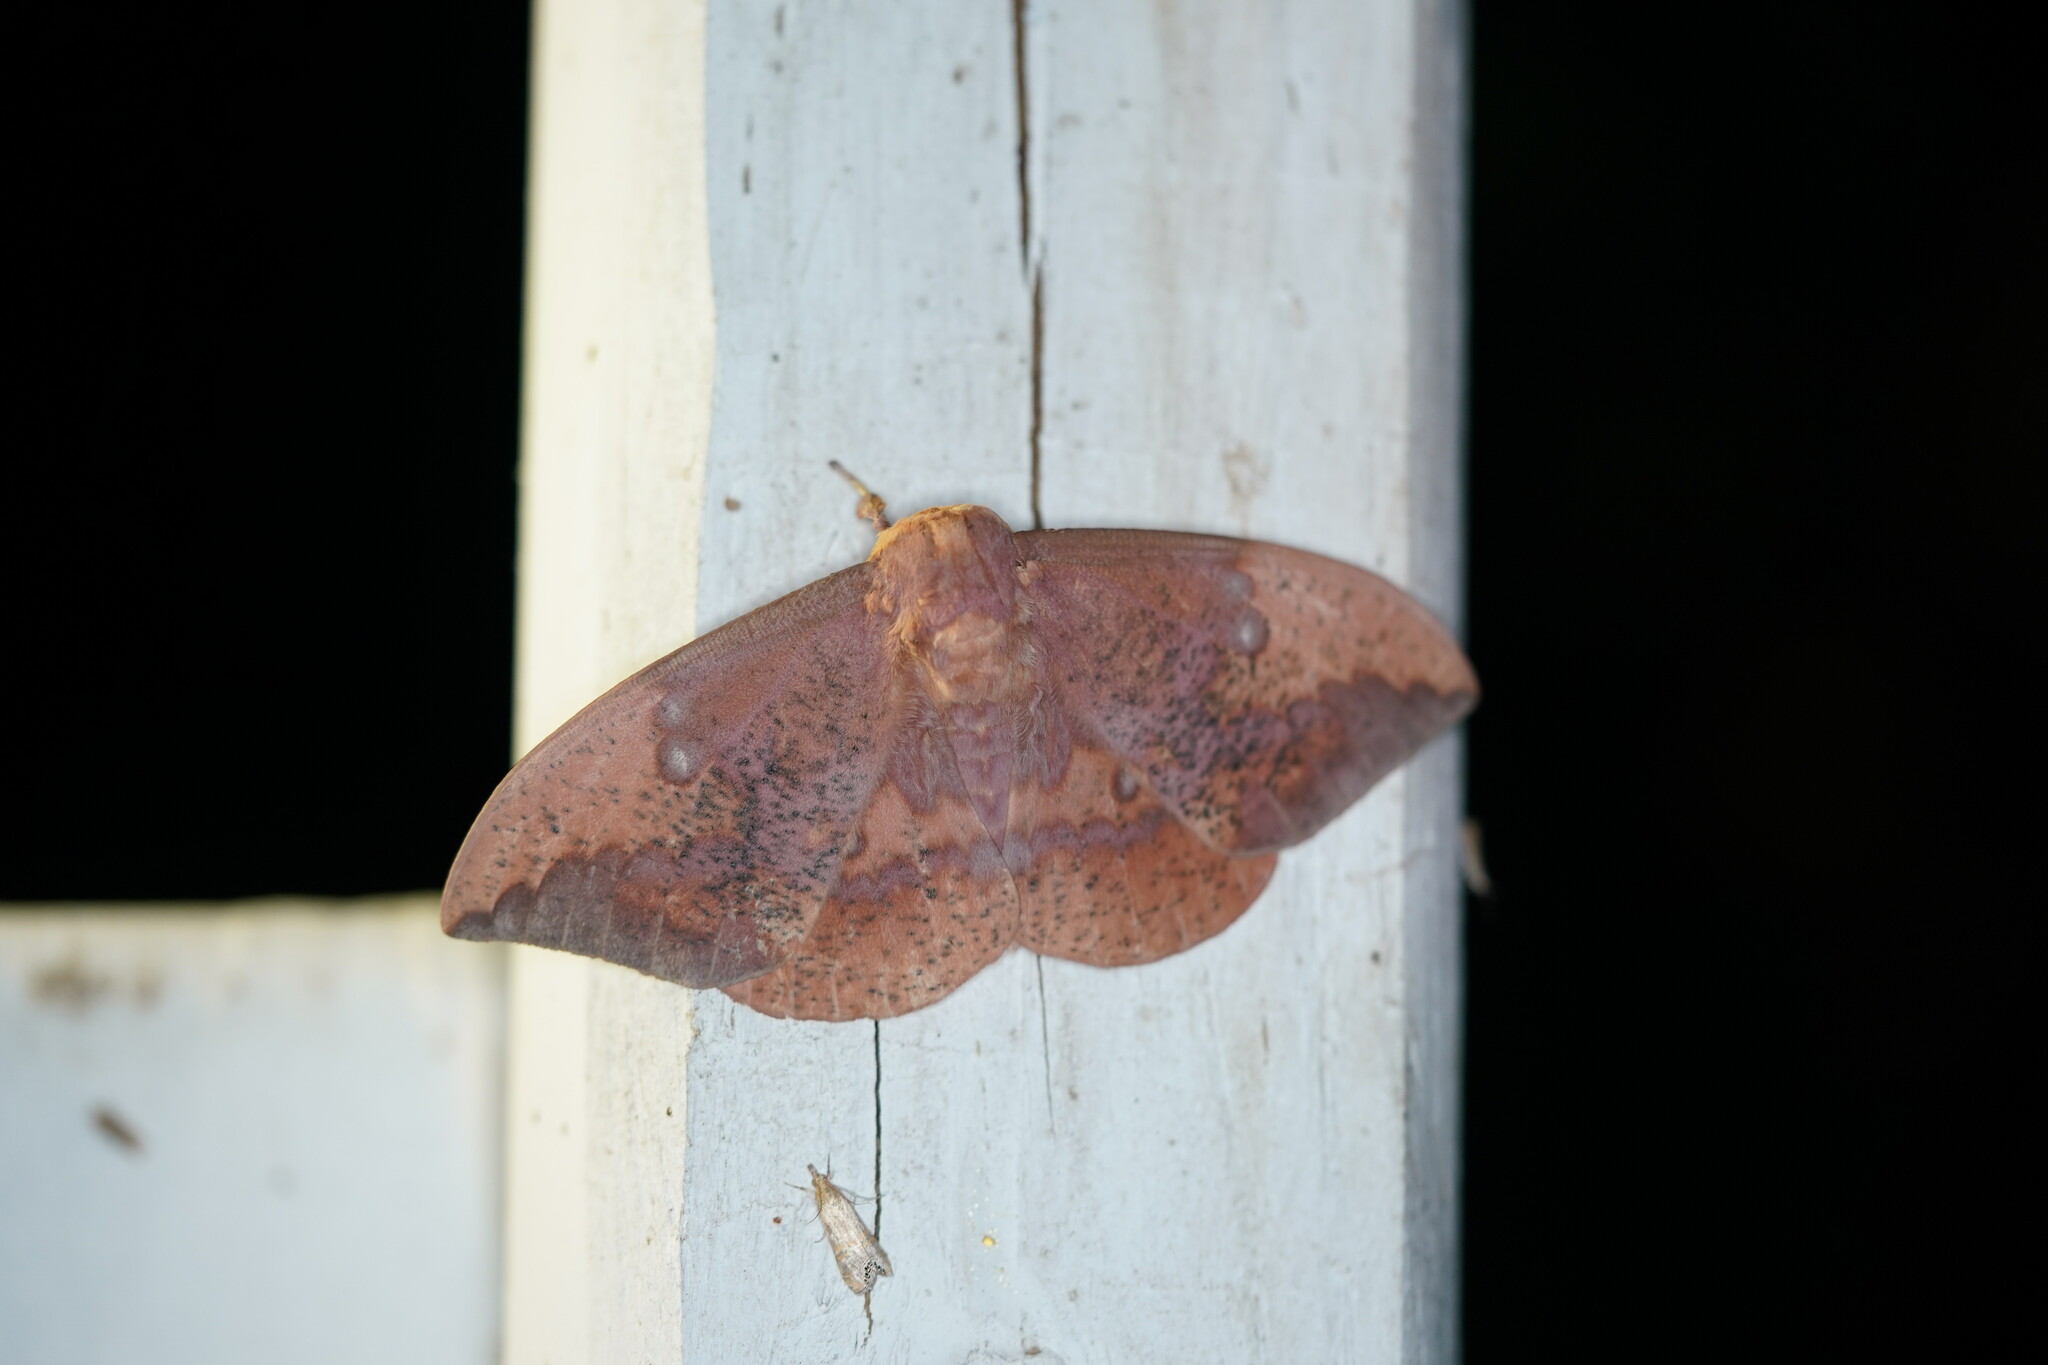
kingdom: Animalia
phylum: Arthropoda
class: Insecta
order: Lepidoptera
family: Saturniidae
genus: Eacles
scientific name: Eacles imperialis
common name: Imperial moth
